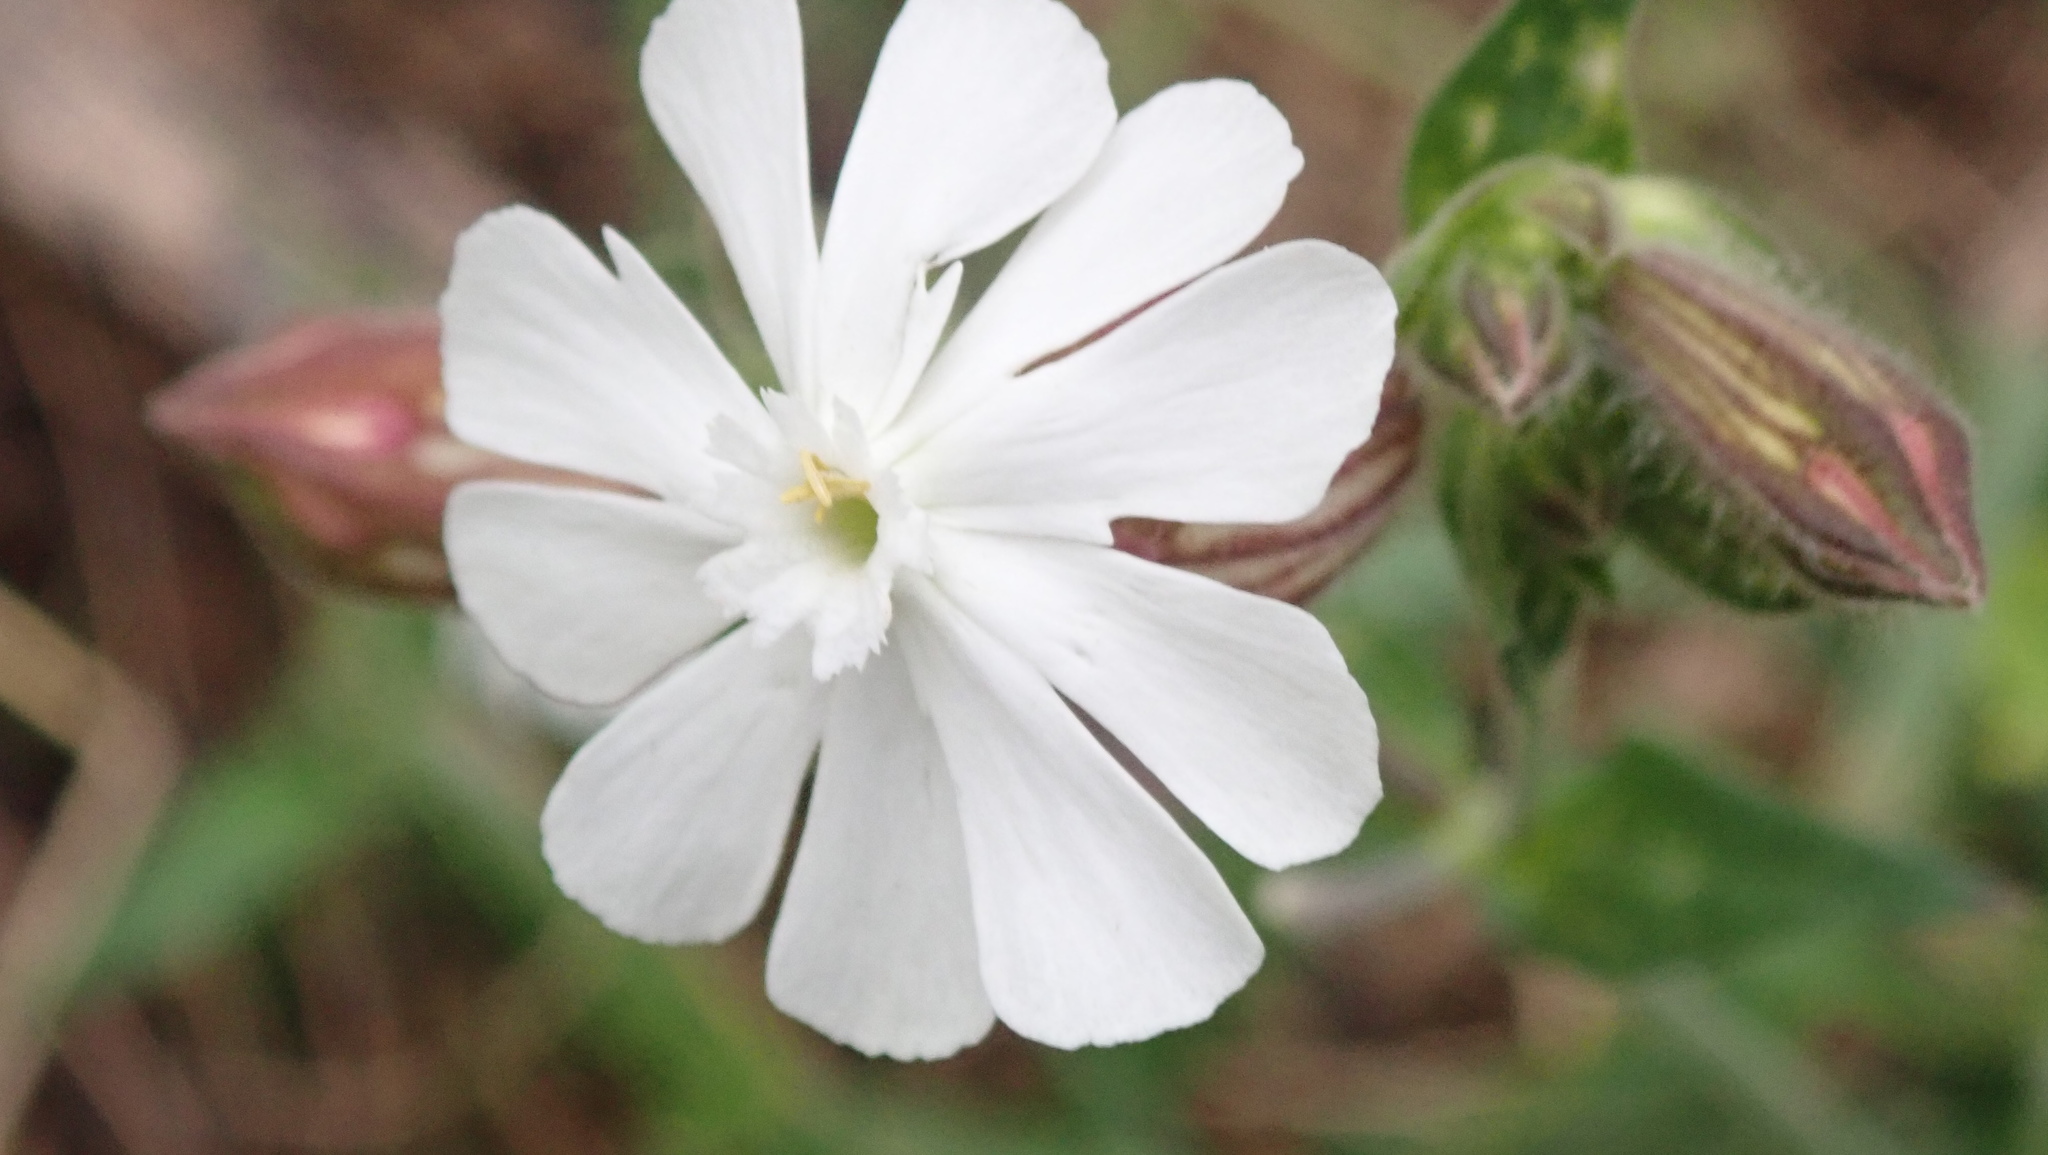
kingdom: Plantae
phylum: Tracheophyta
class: Magnoliopsida
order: Caryophyllales
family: Caryophyllaceae
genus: Silene
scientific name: Silene latifolia
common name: White campion
